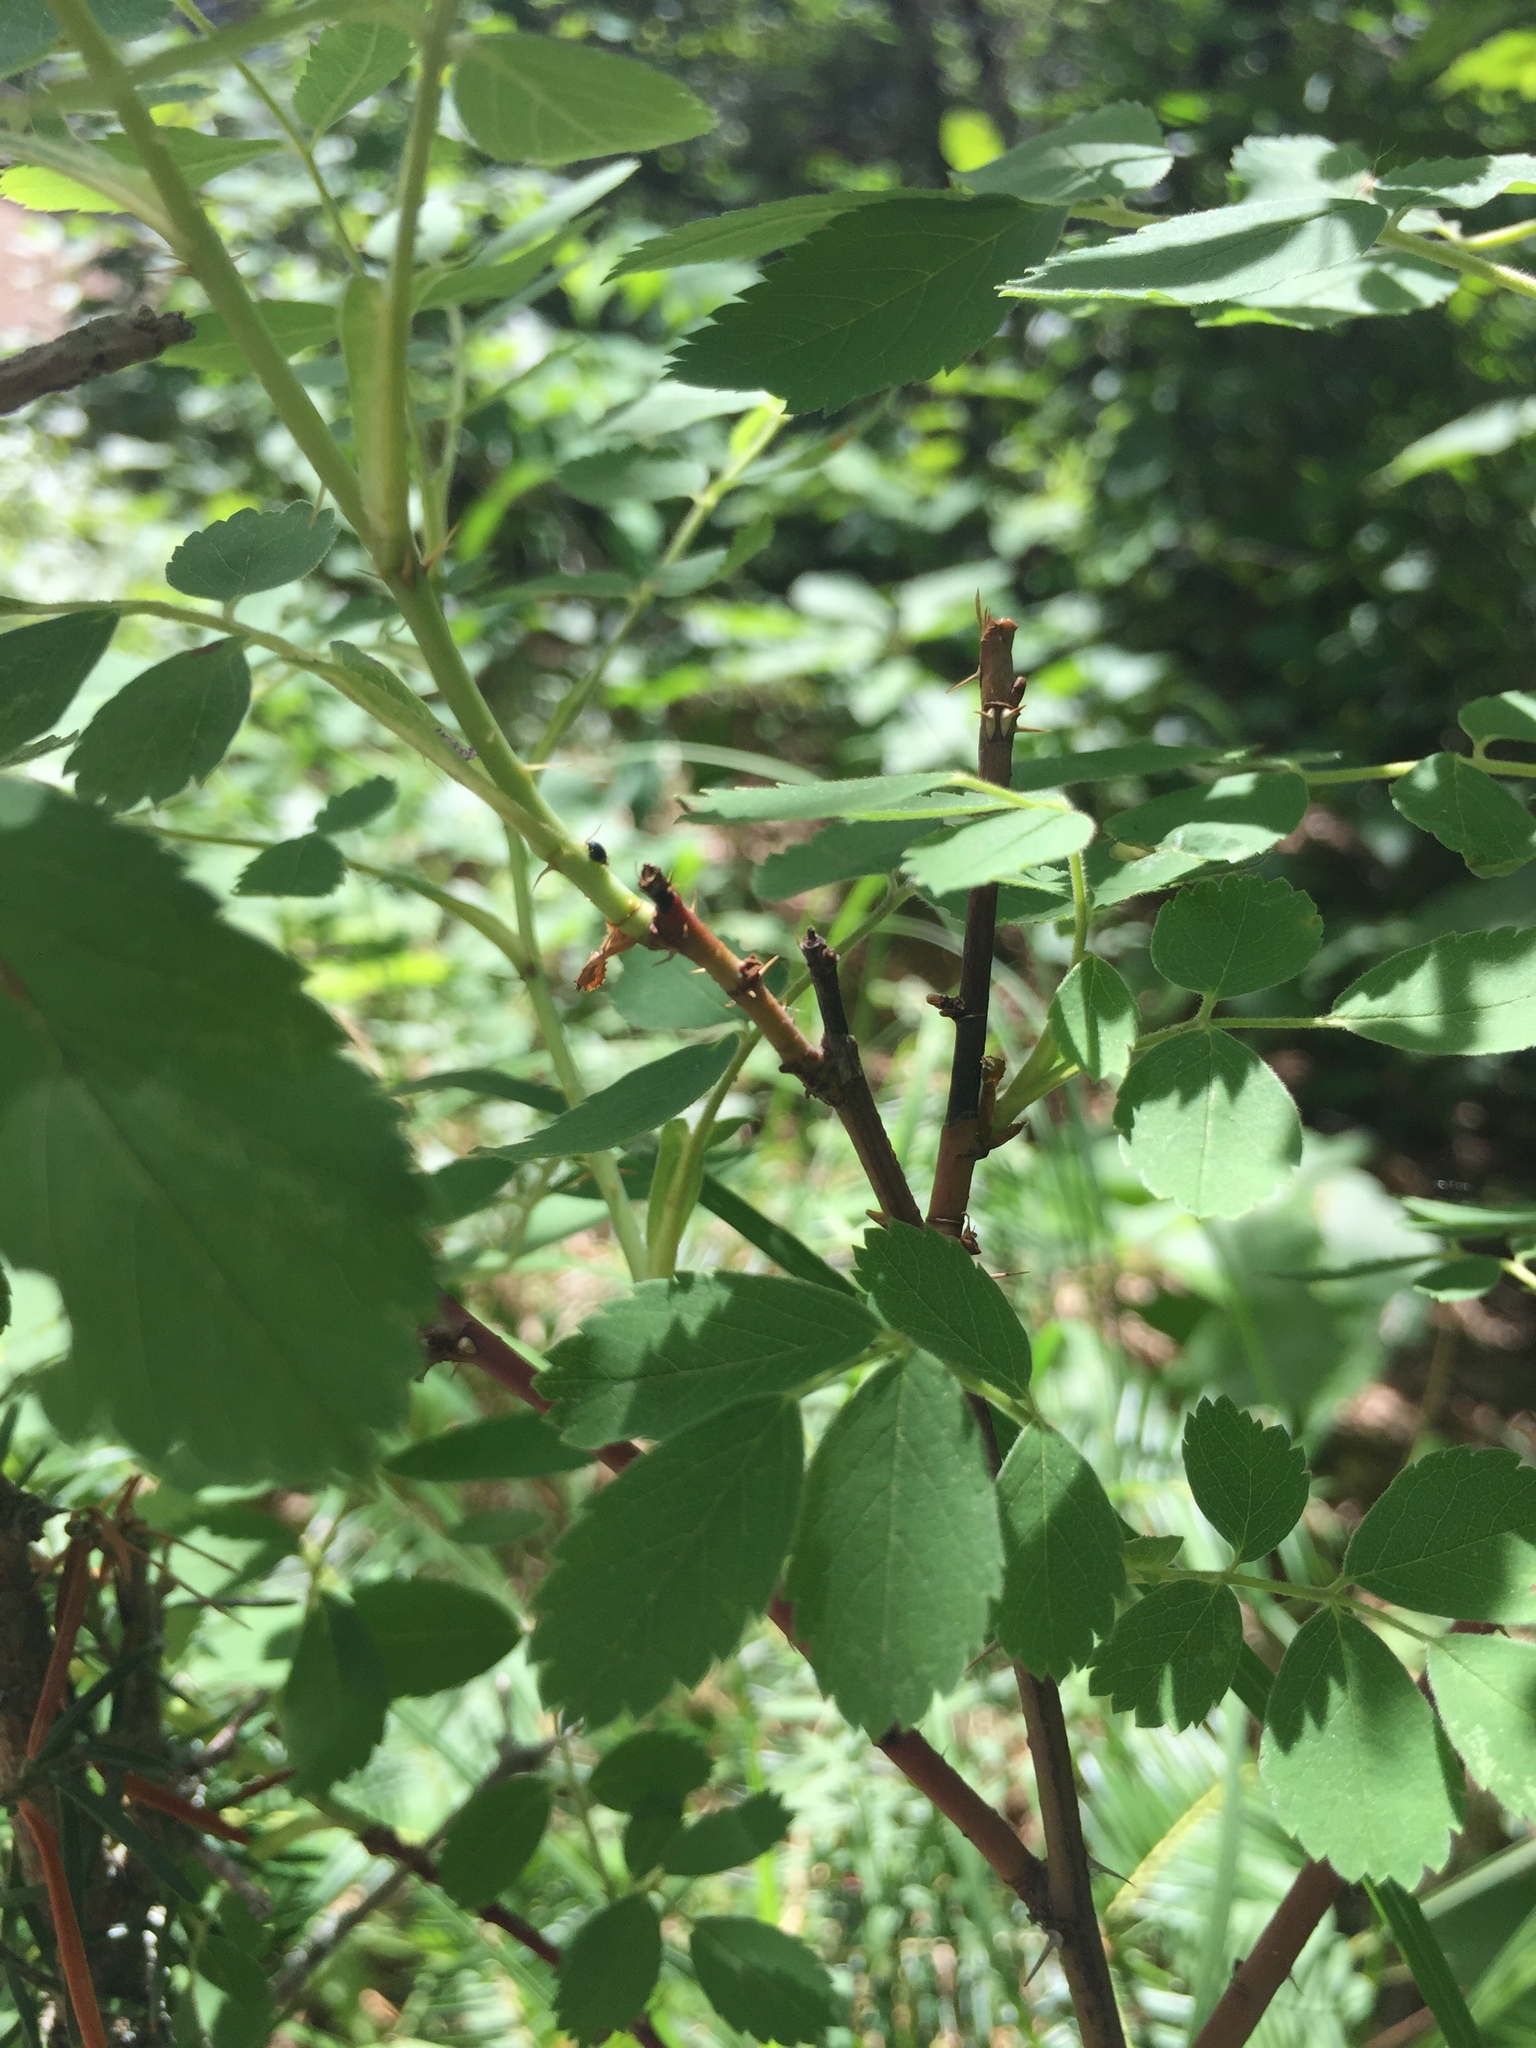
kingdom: Plantae
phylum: Tracheophyta
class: Magnoliopsida
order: Rosales
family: Rosaceae
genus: Rosa
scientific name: Rosa acicularis
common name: Prickly rose
